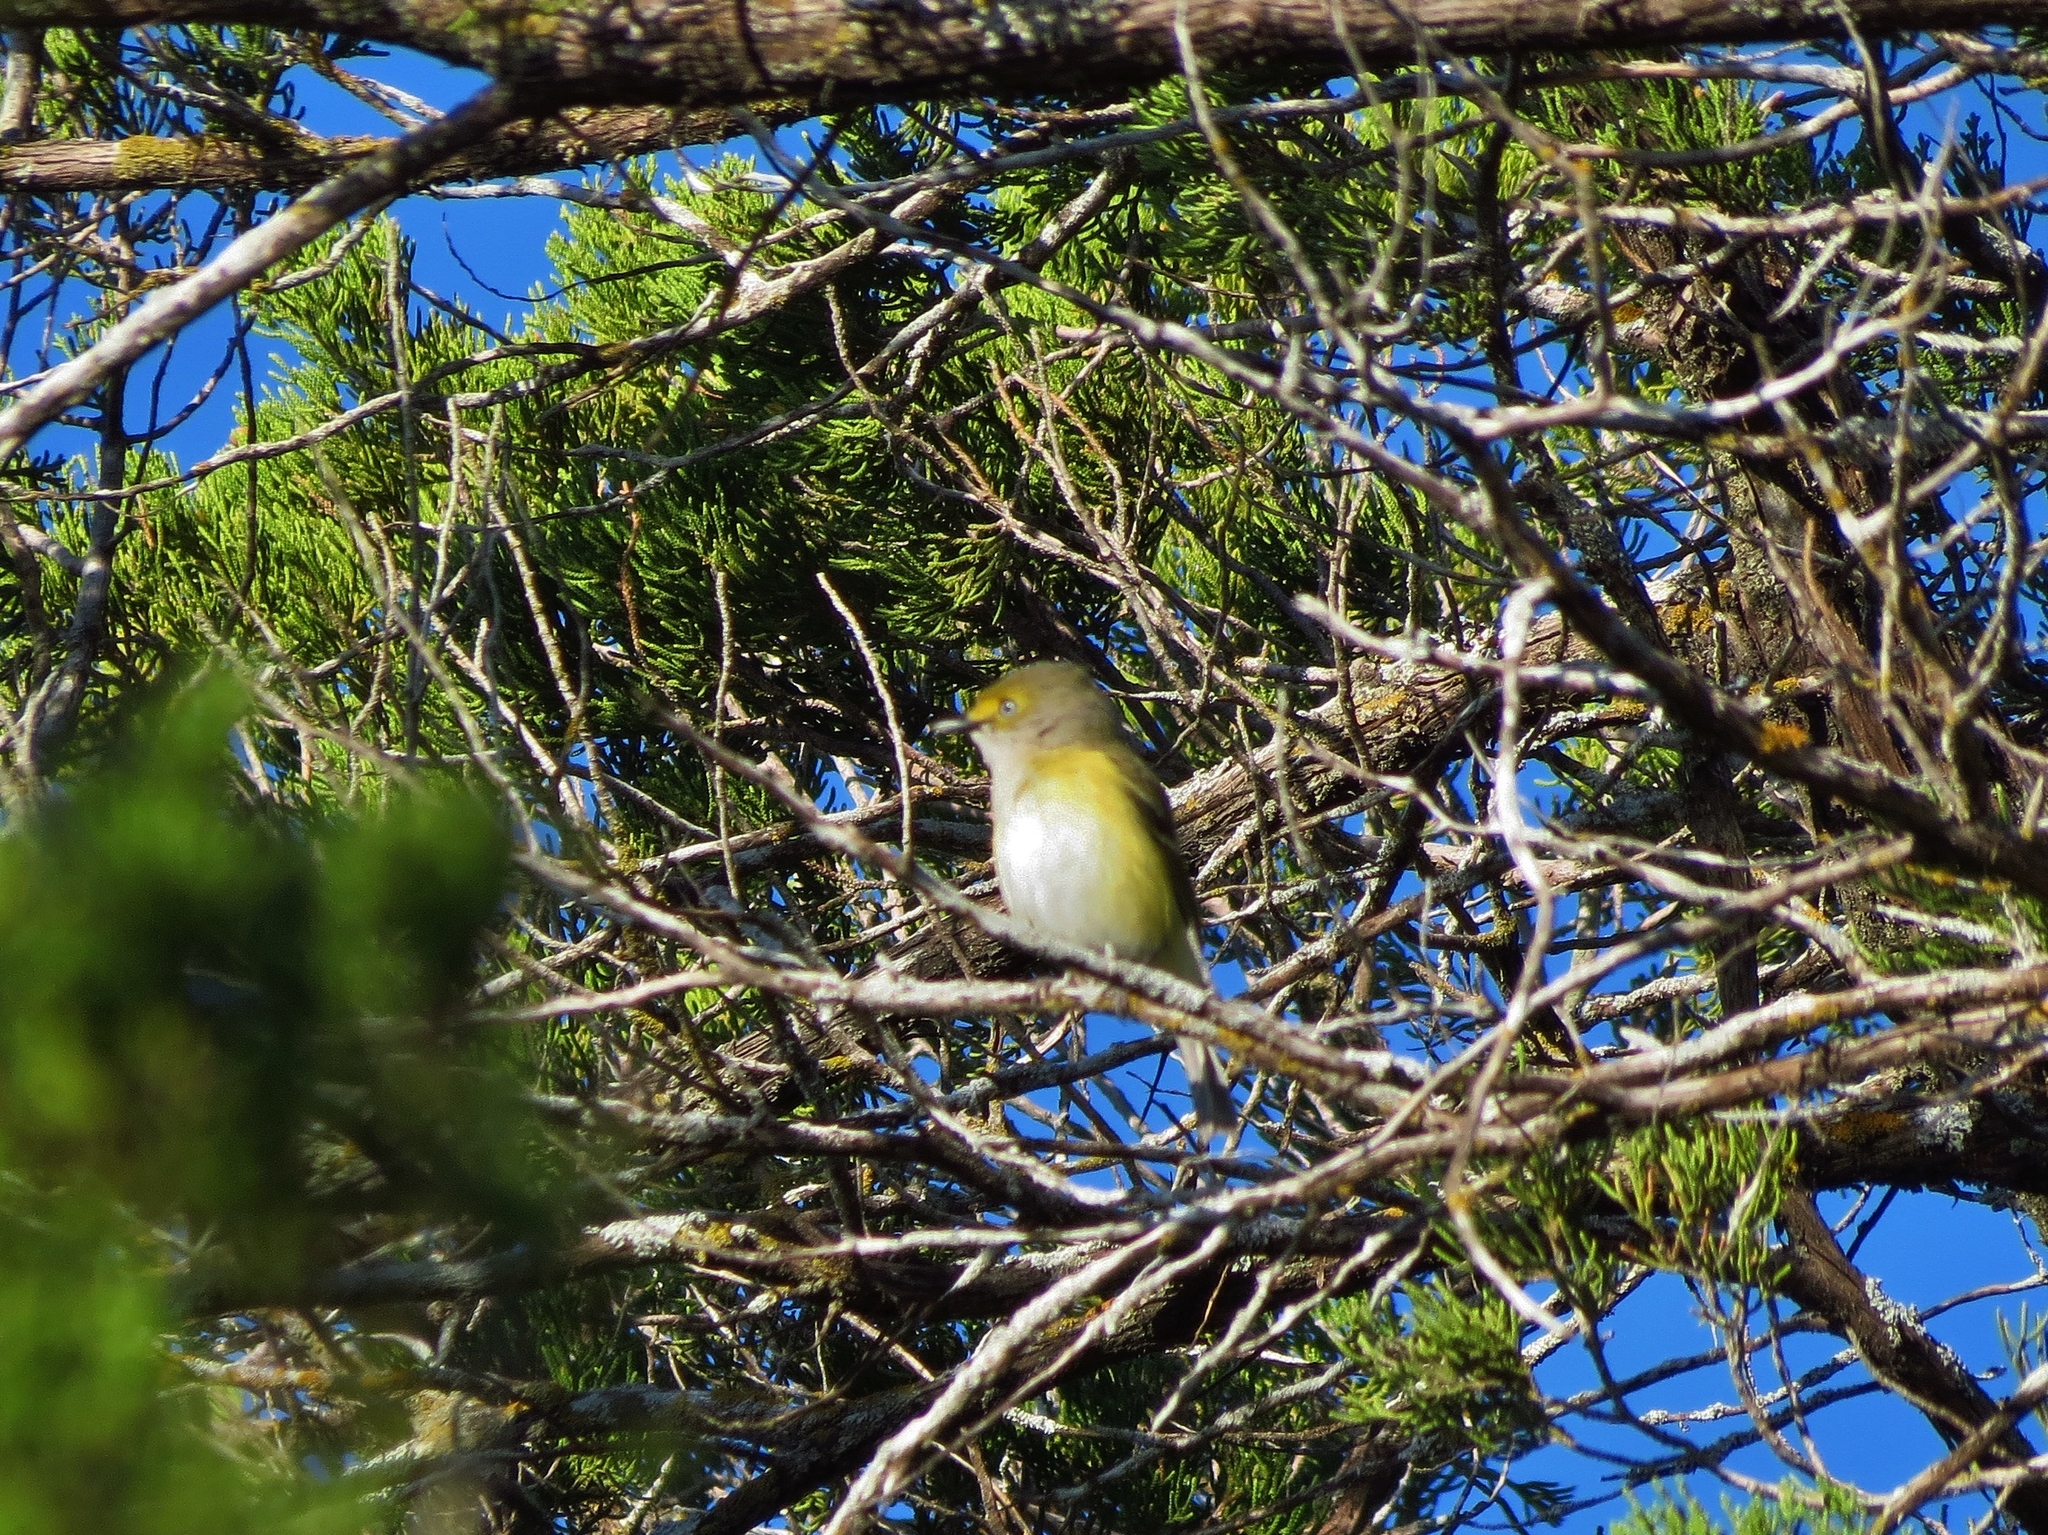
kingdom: Animalia
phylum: Chordata
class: Aves
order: Passeriformes
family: Vireonidae
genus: Vireo
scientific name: Vireo griseus
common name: White-eyed vireo
